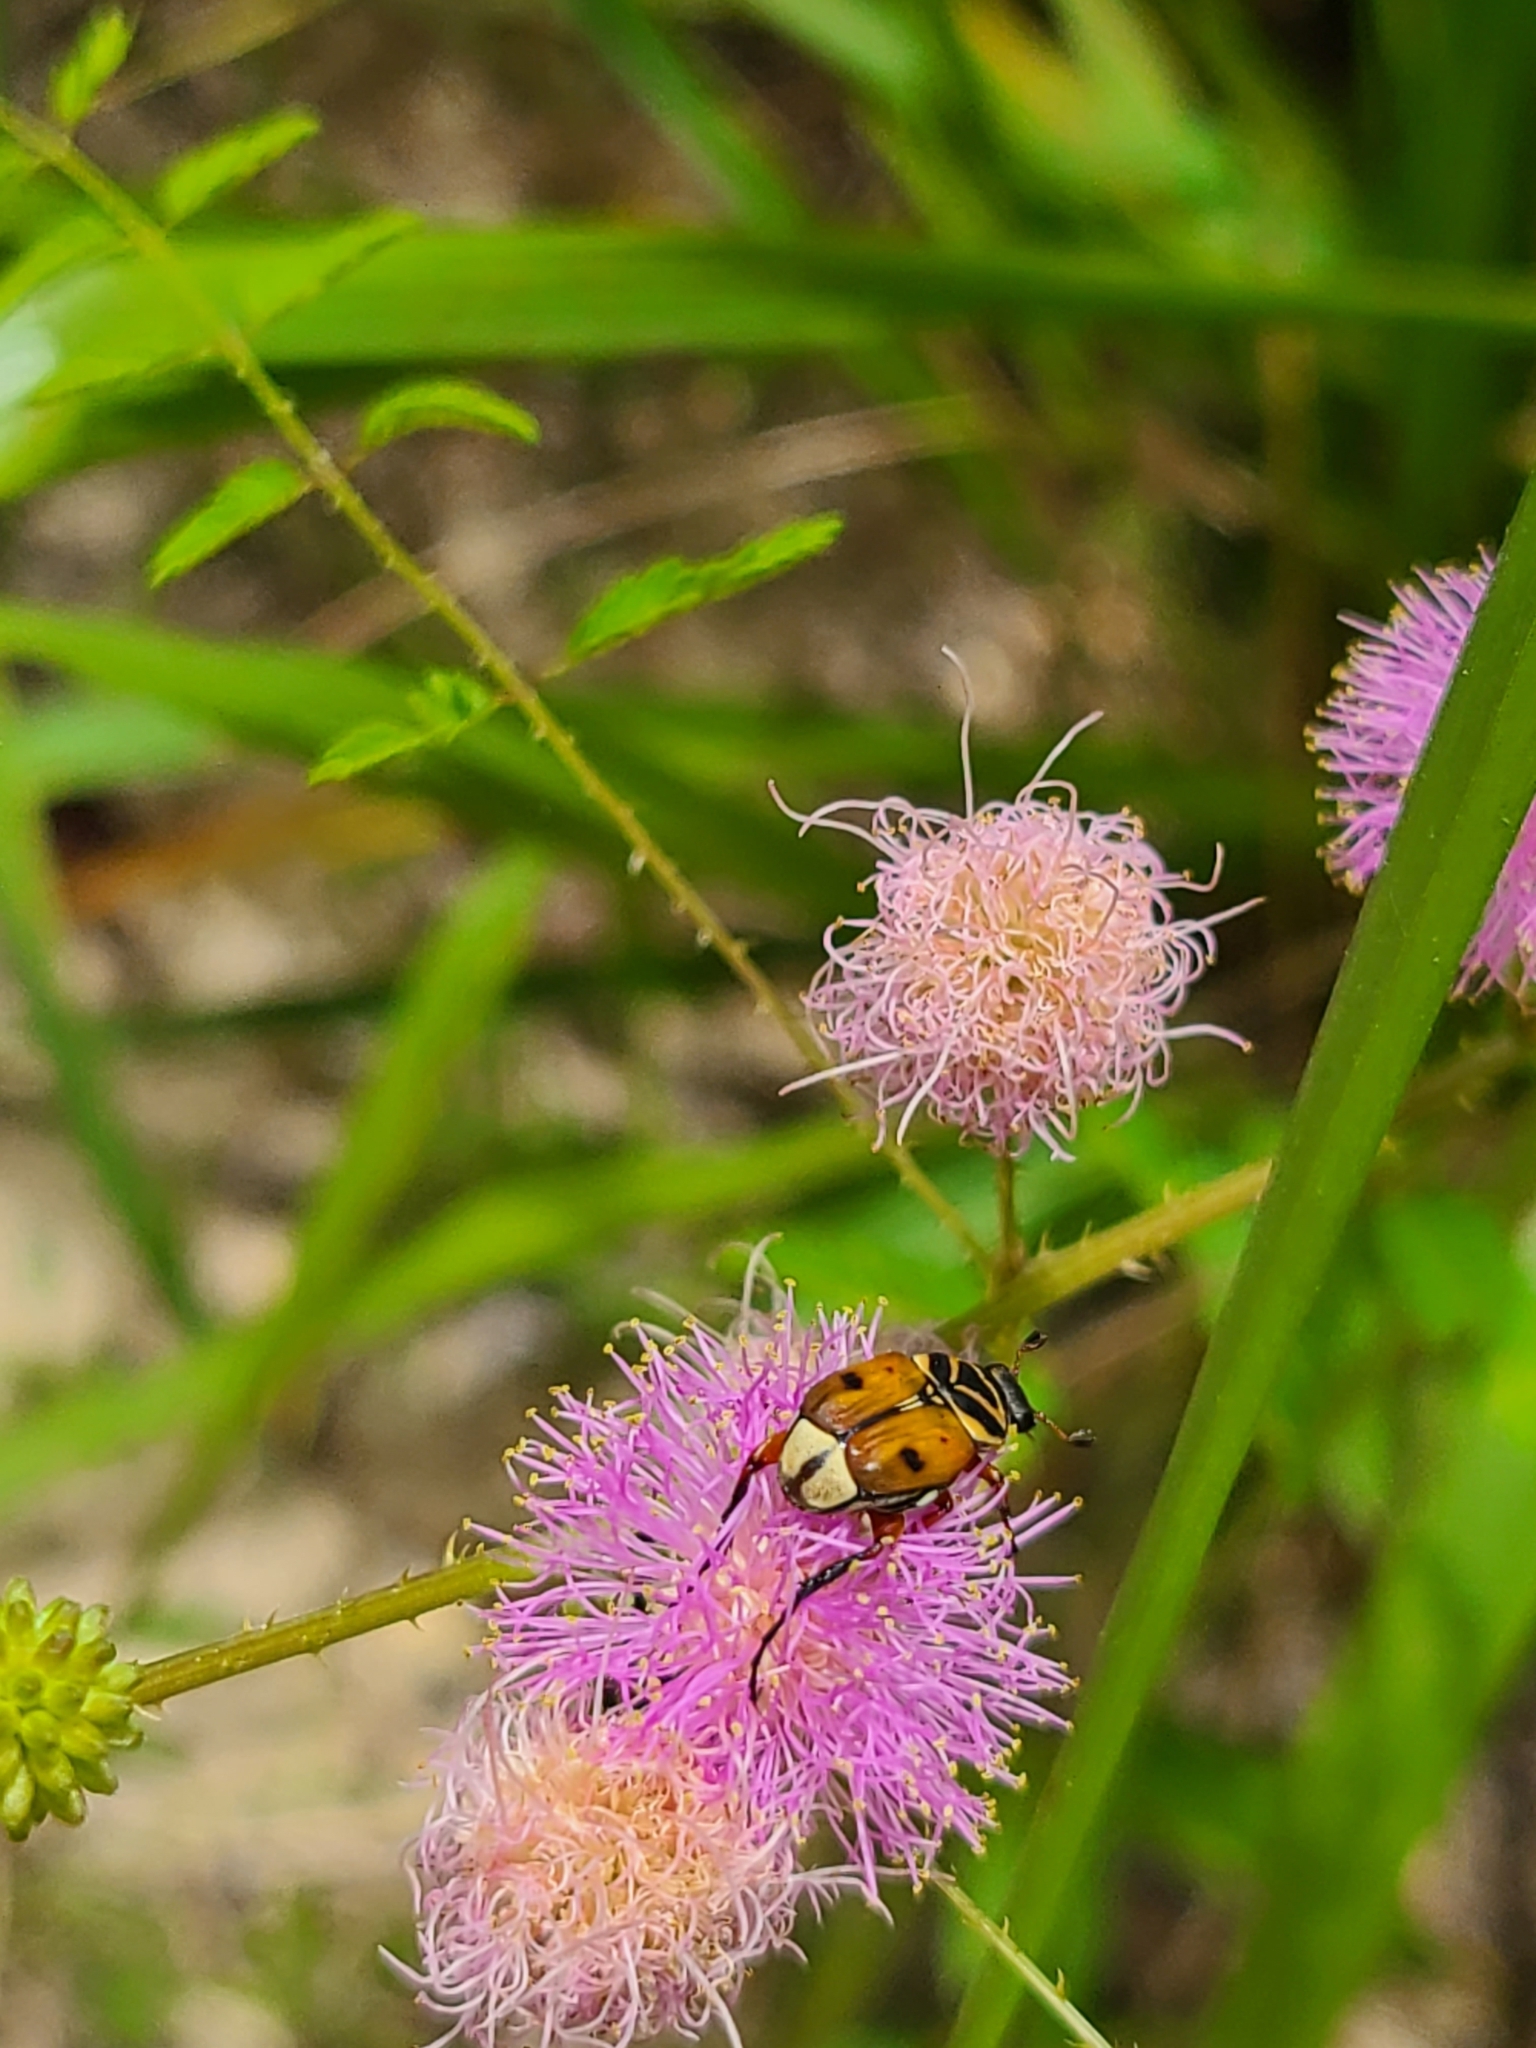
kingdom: Animalia
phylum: Arthropoda
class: Insecta
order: Coleoptera
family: Scarabaeidae
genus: Trigonopeltastes
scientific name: Trigonopeltastes delta
